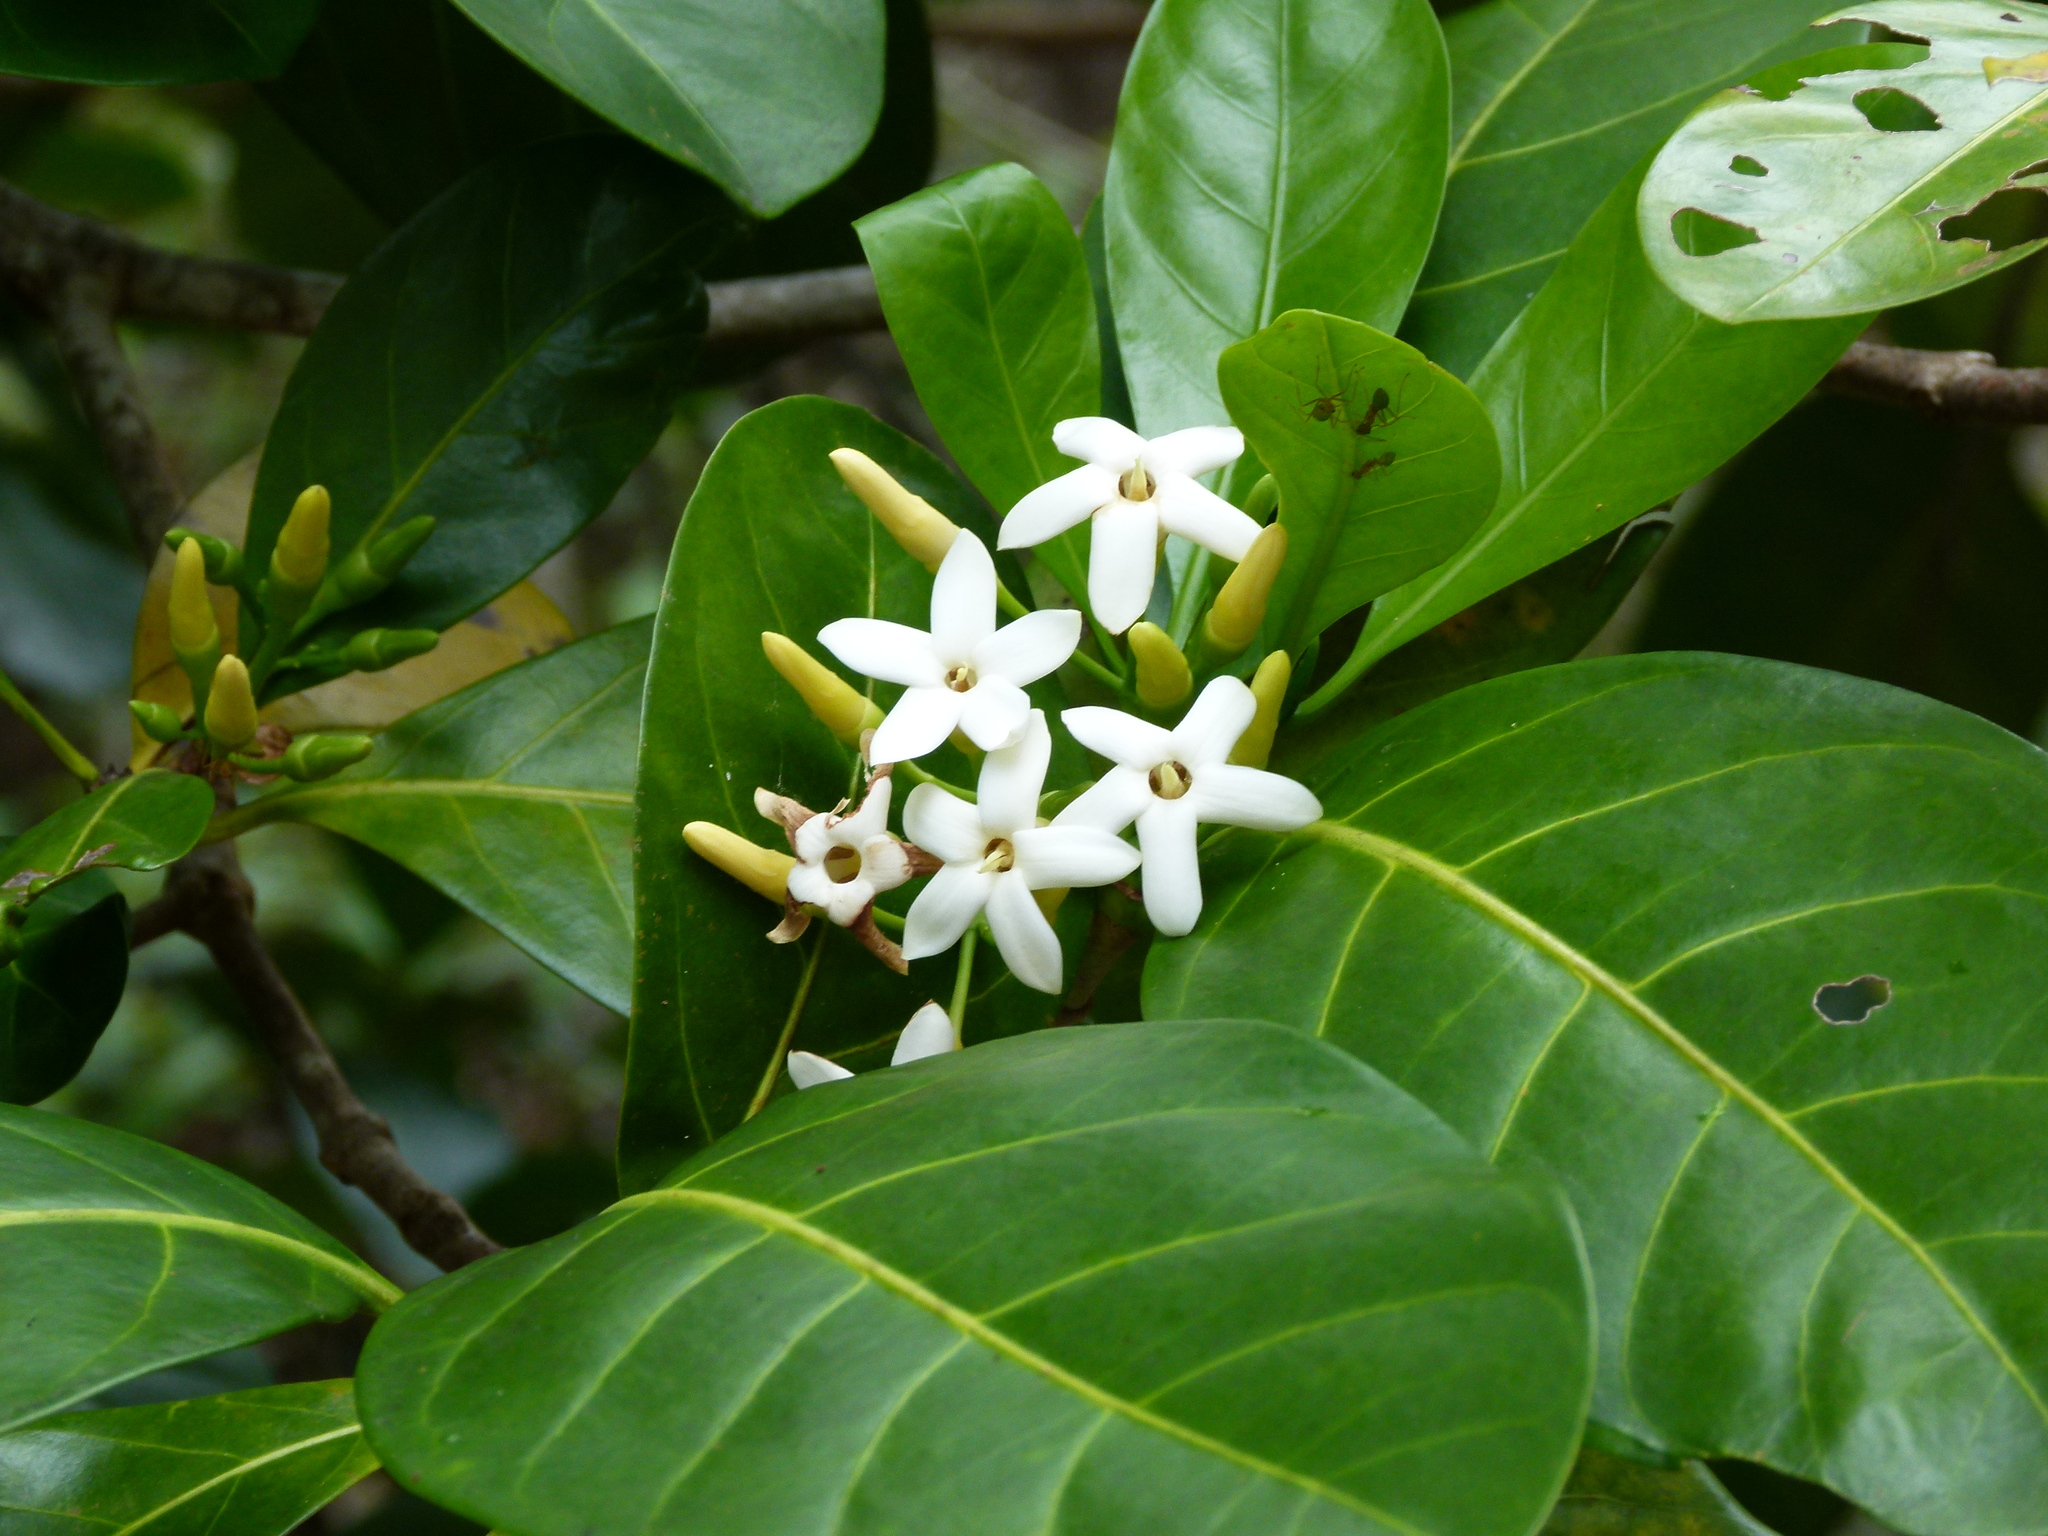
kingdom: Plantae
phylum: Tracheophyta
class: Magnoliopsida
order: Gentianales
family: Rubiaceae
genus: Atractocarpus
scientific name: Atractocarpus fitzalanii
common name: Randia
